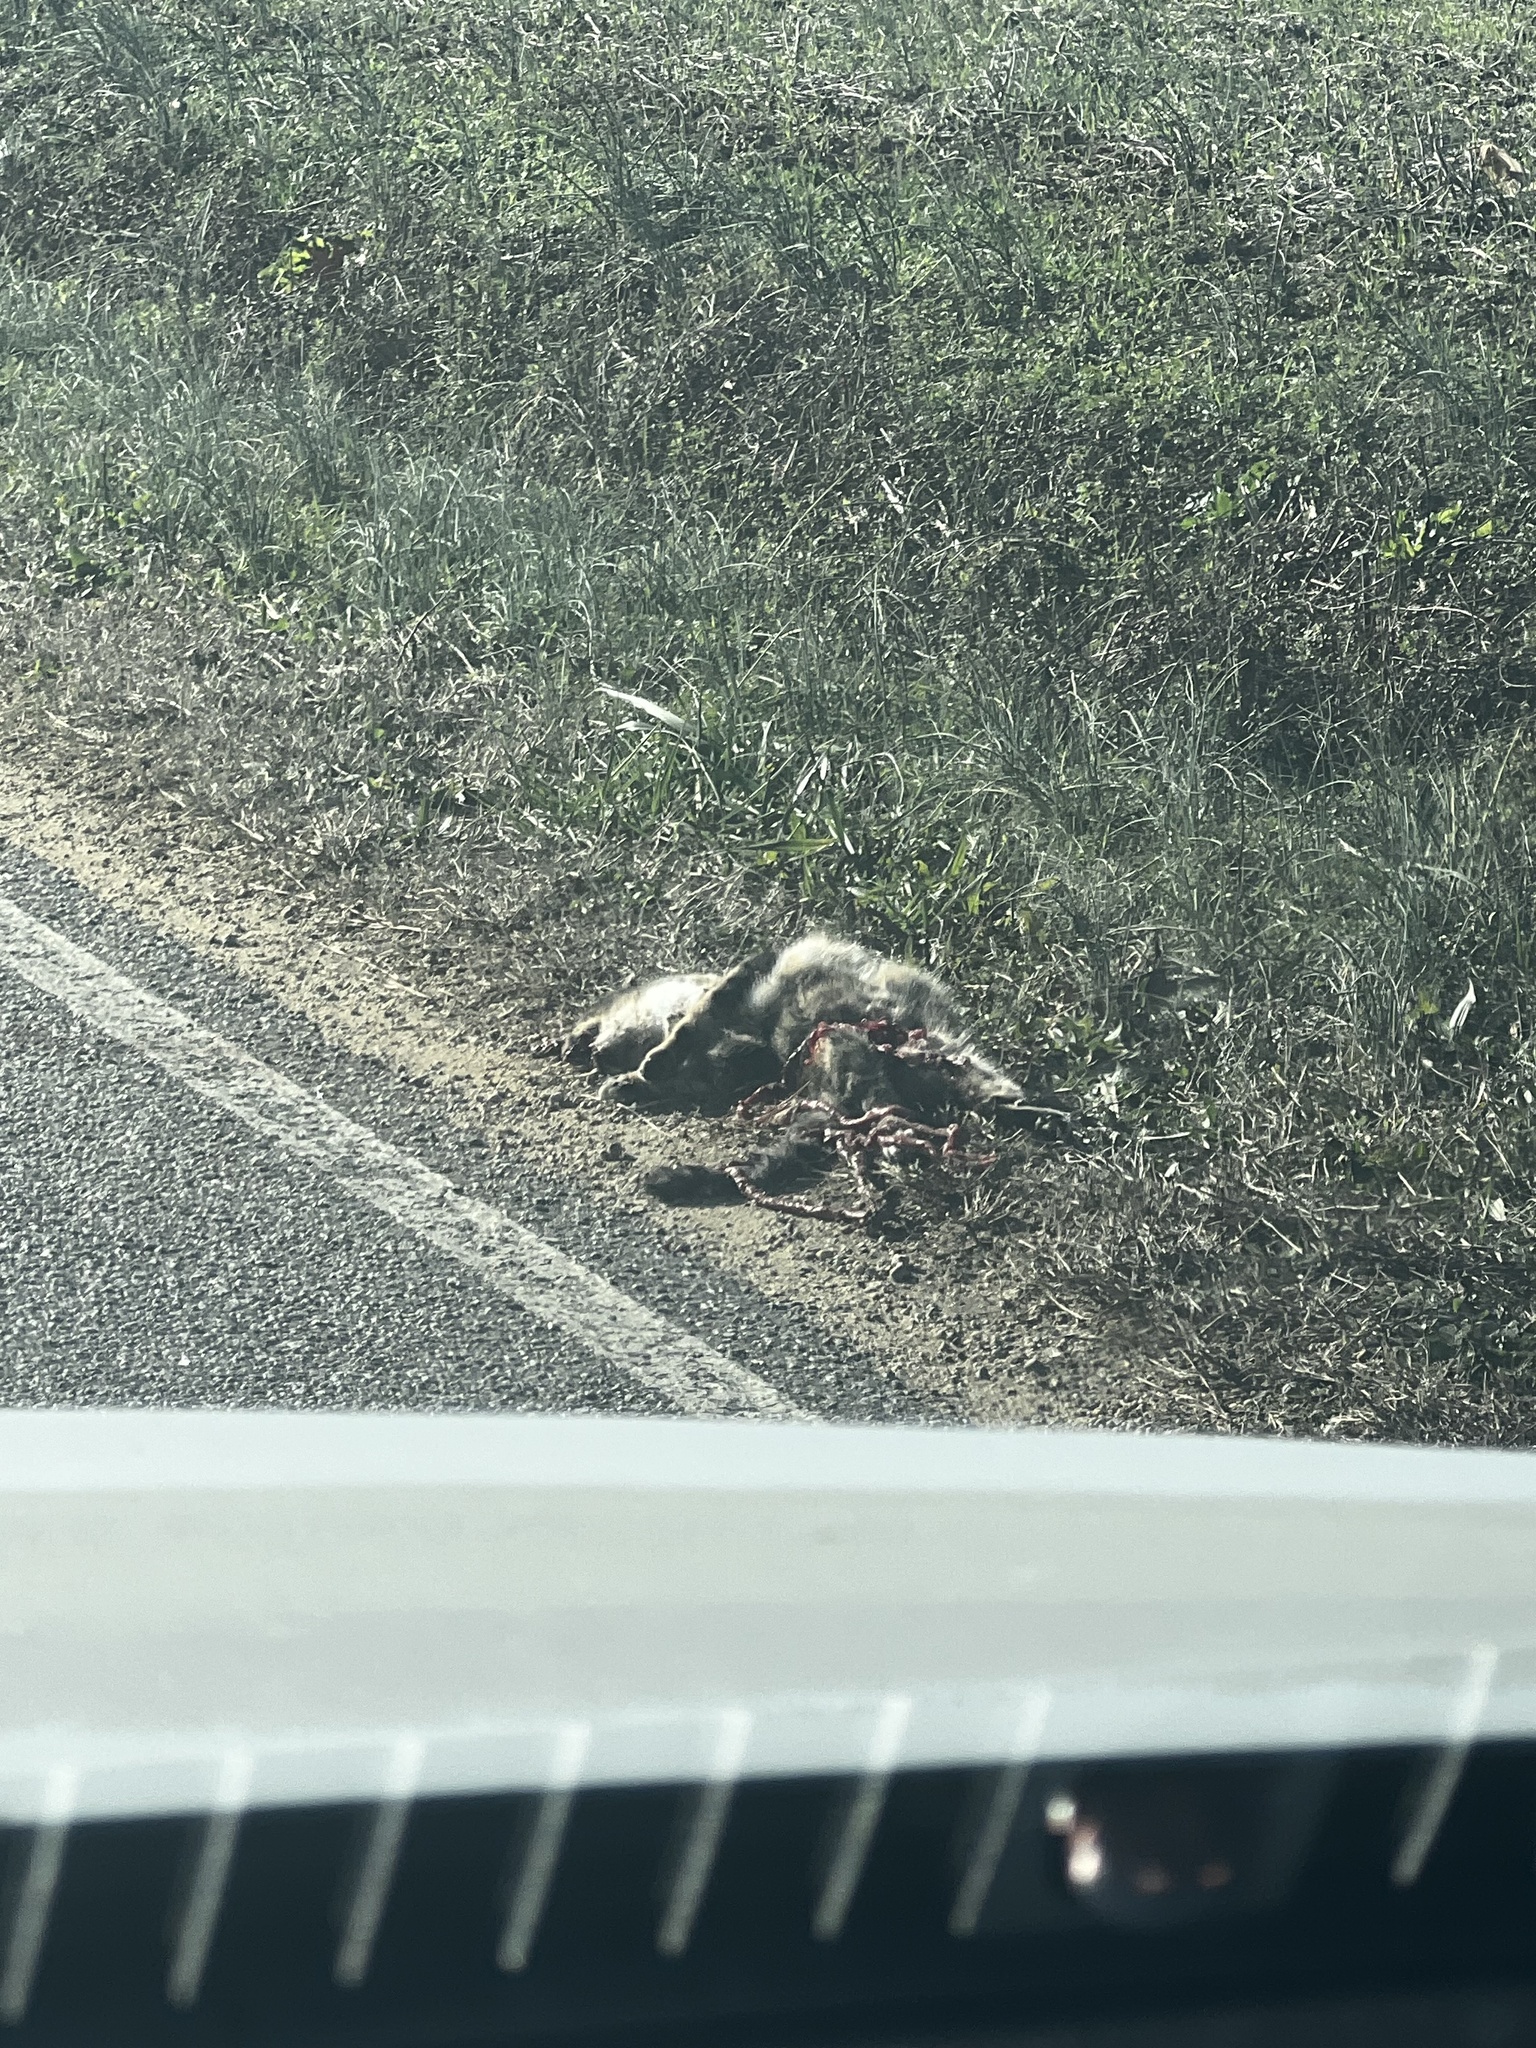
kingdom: Animalia
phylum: Chordata
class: Mammalia
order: Carnivora
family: Felidae
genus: Felis
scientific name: Felis catus
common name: Domestic cat
